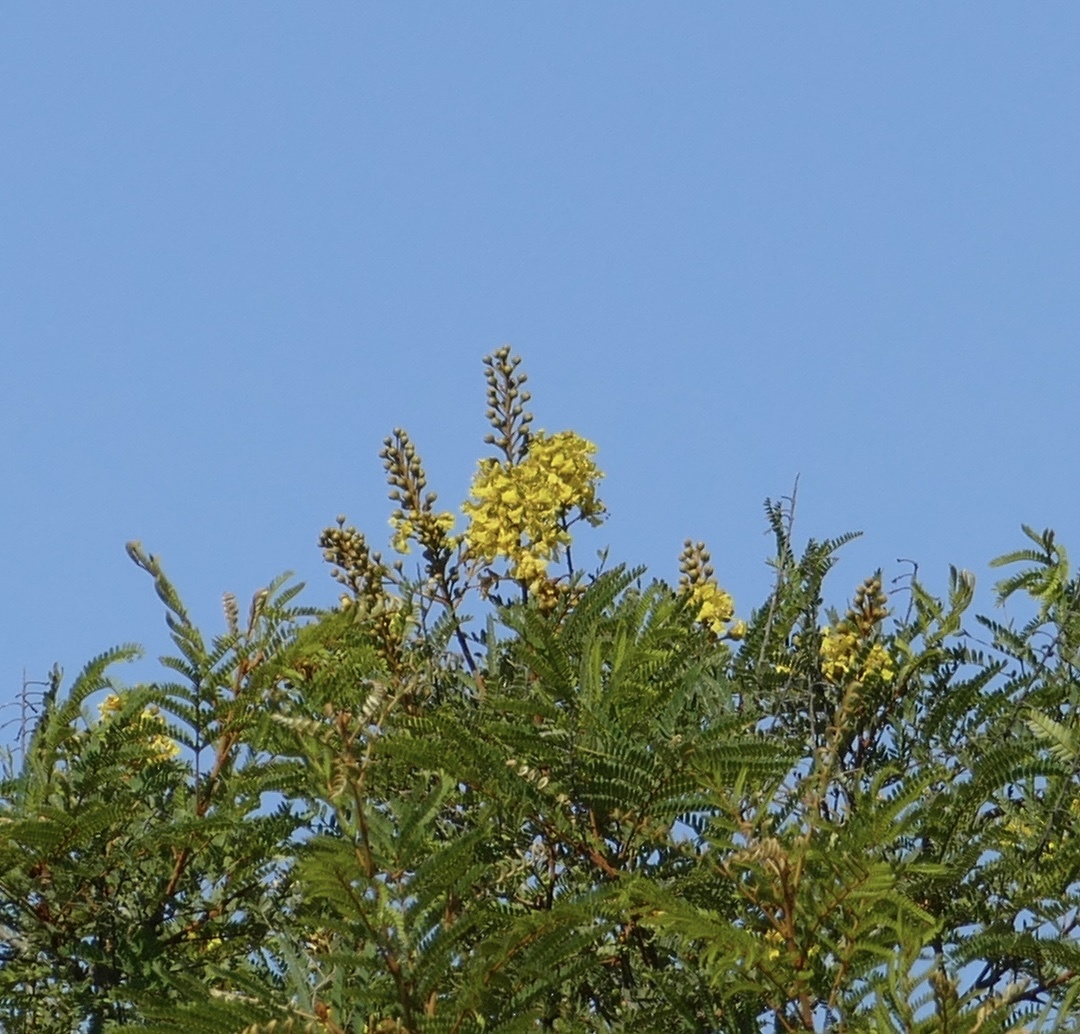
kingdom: Plantae
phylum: Tracheophyta
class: Magnoliopsida
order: Fabales
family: Fabaceae
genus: Peltophorum
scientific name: Peltophorum africanum
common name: African black wattle
